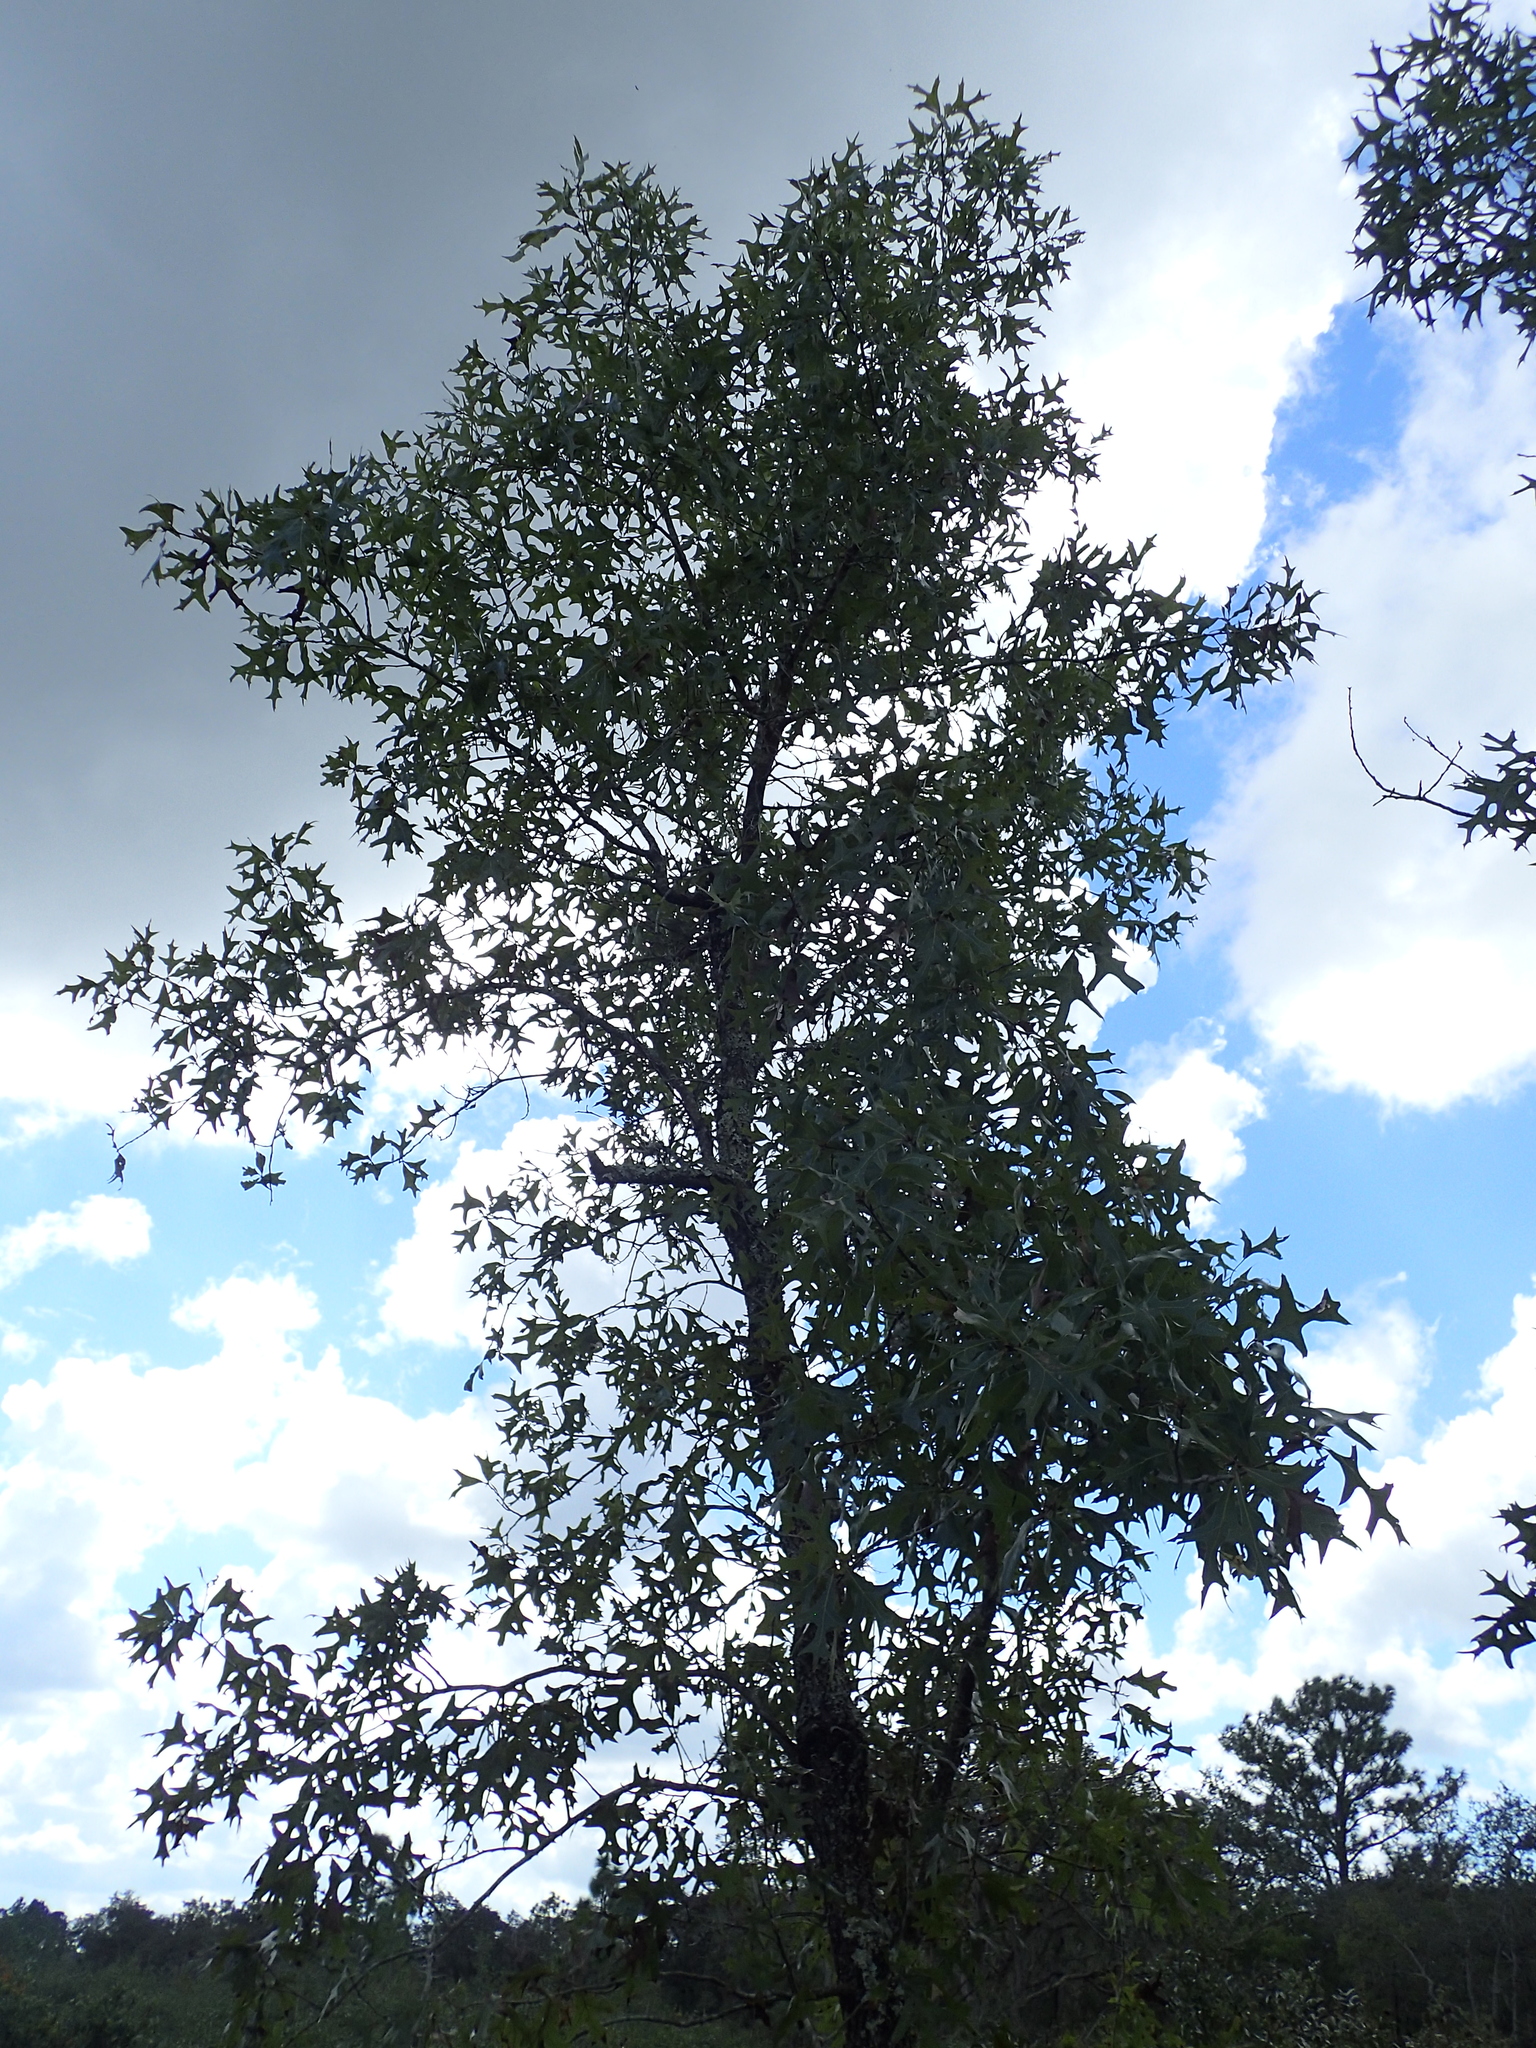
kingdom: Plantae
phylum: Tracheophyta
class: Magnoliopsida
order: Fagales
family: Fagaceae
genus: Quercus
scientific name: Quercus laevis
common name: Turkey oak
